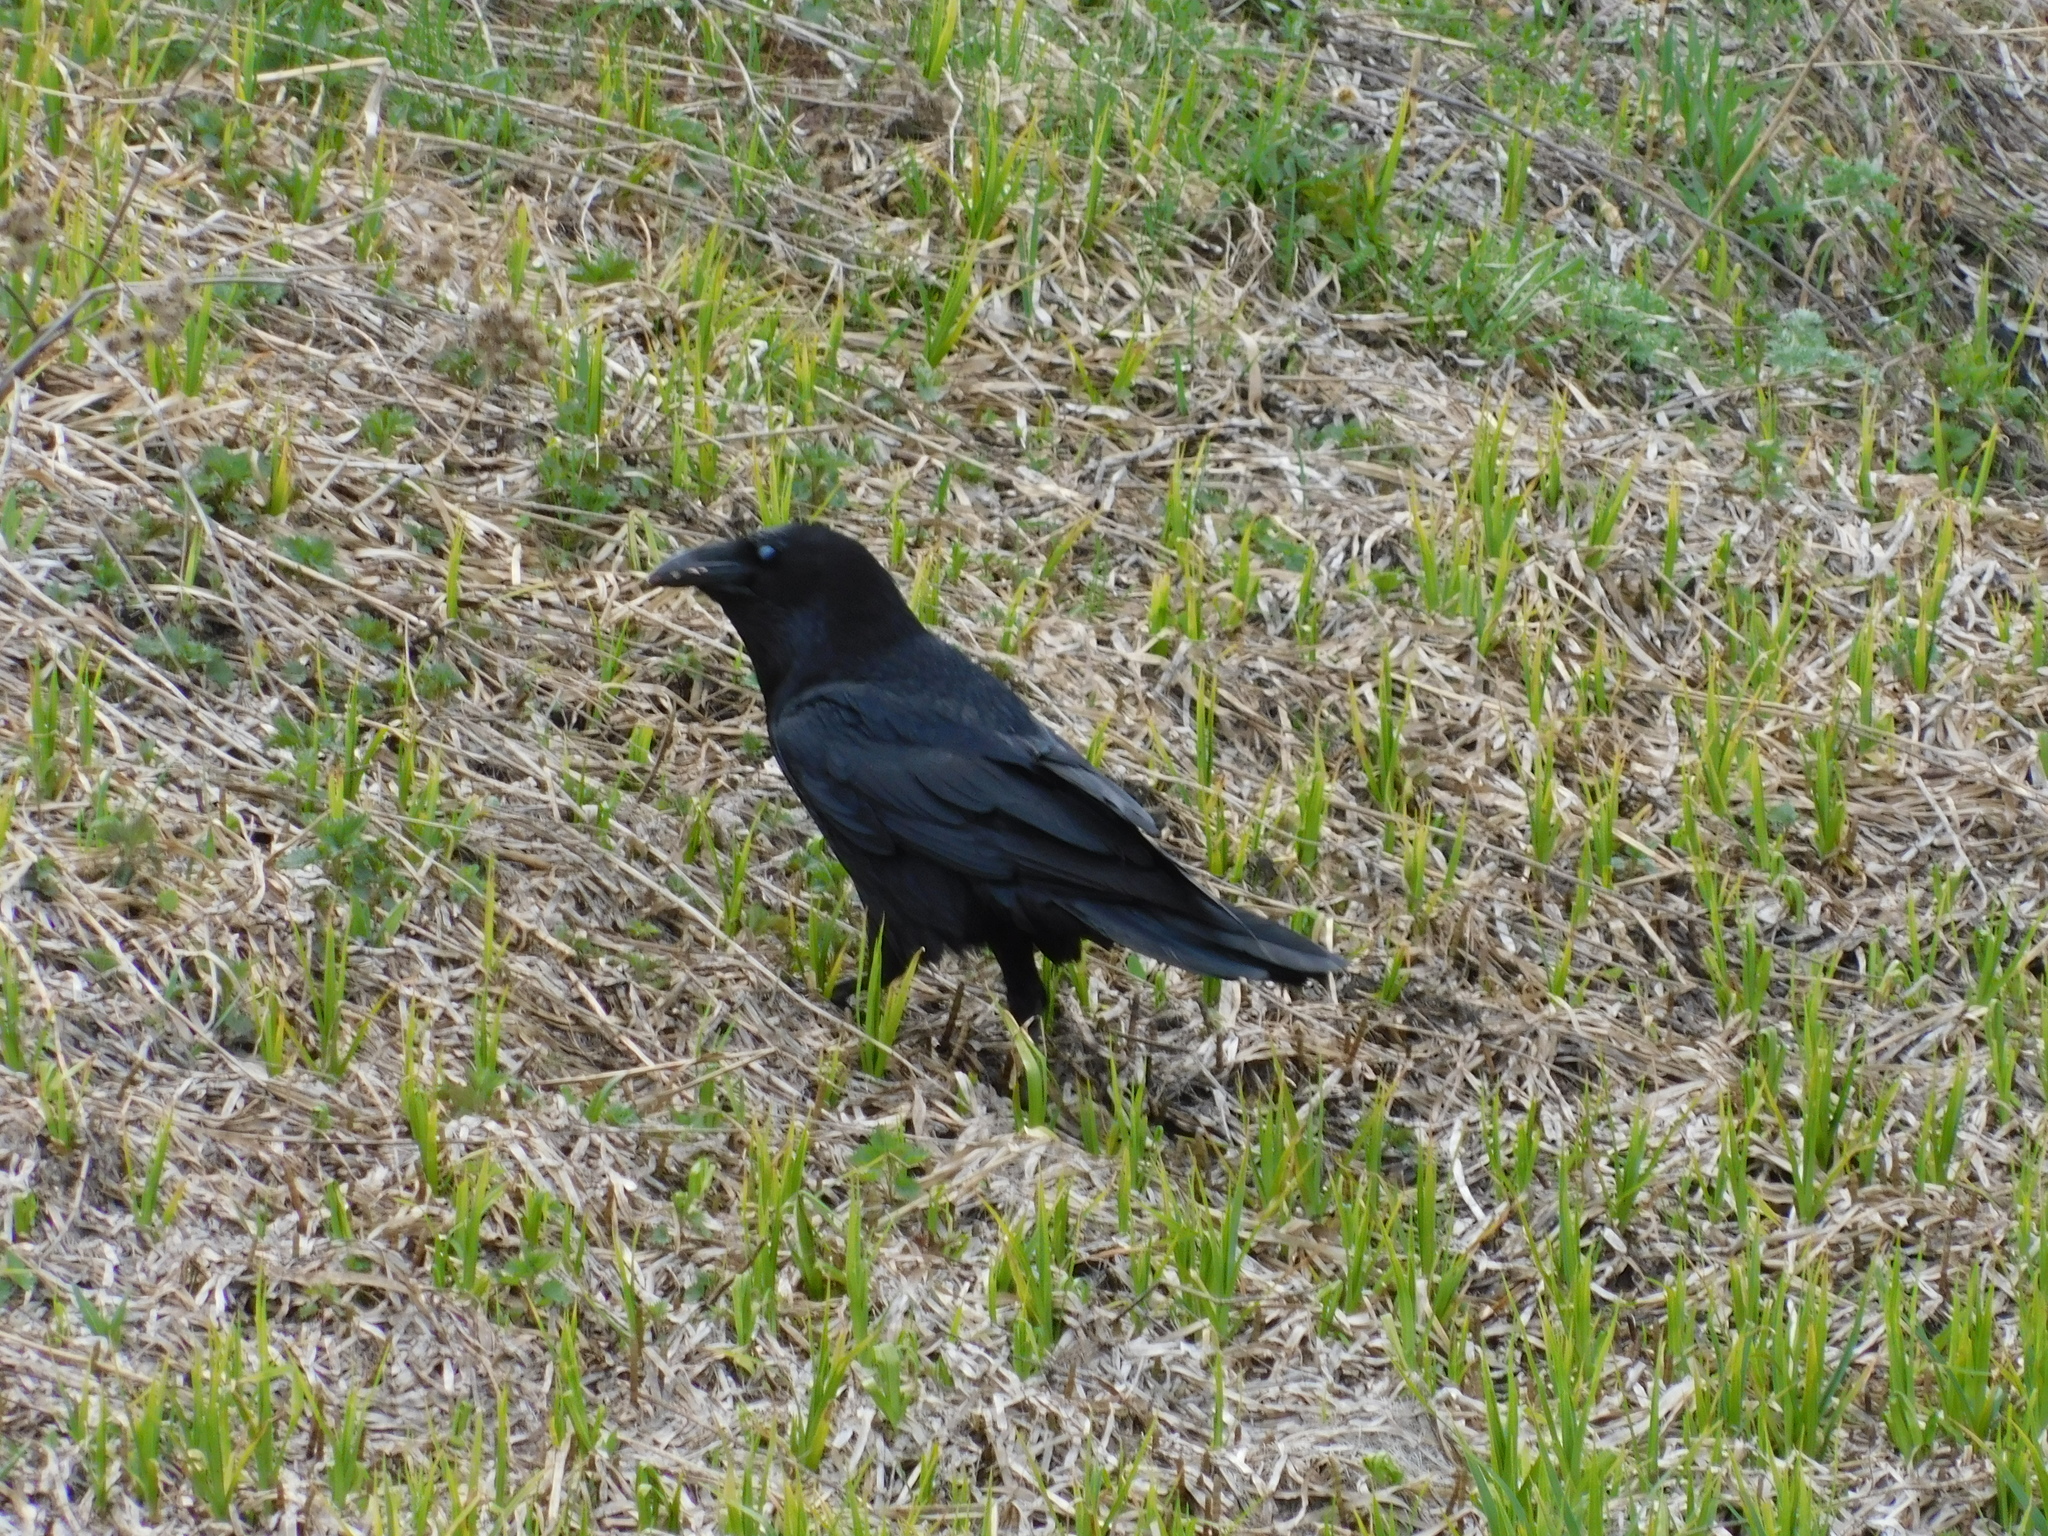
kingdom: Animalia
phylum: Chordata
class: Aves
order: Passeriformes
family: Corvidae
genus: Corvus
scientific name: Corvus corax
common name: Common raven
